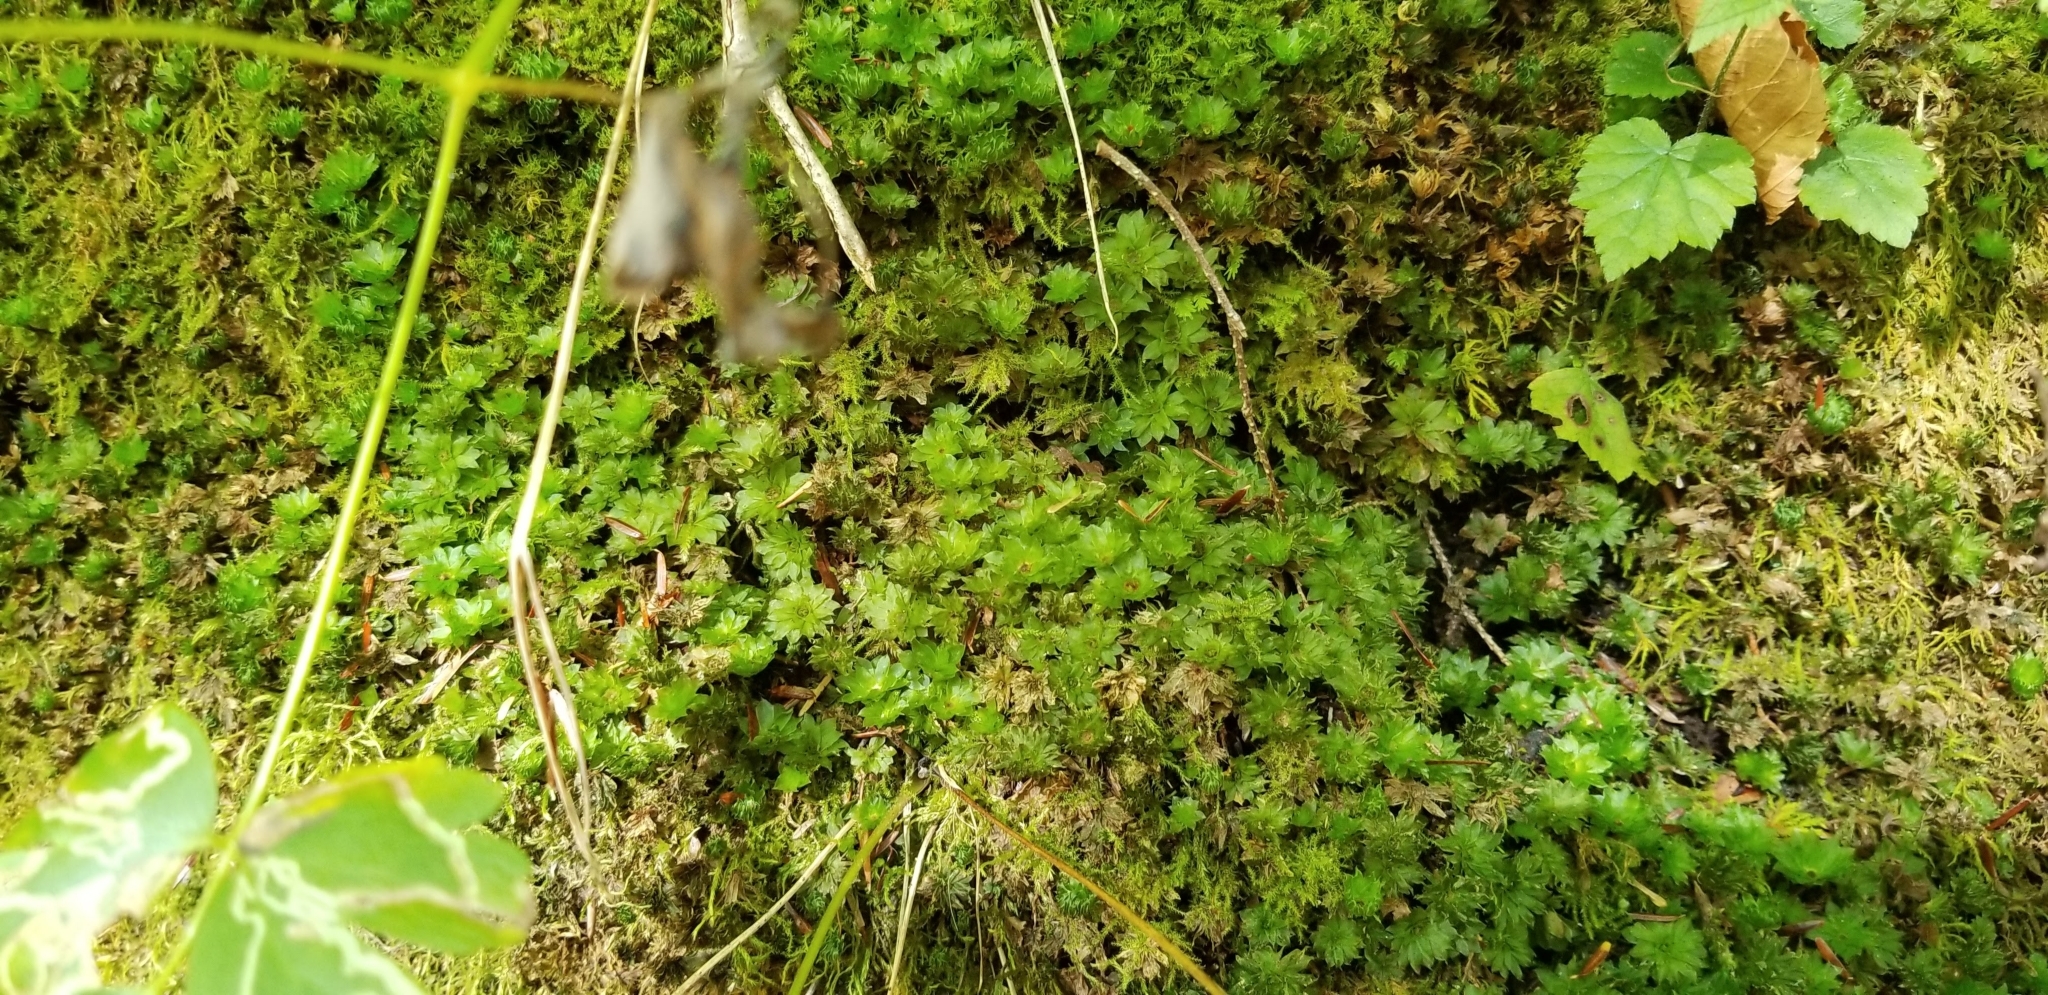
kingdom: Plantae
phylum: Bryophyta
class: Bryopsida
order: Bryales
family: Bryaceae
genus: Rhodobryum
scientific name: Rhodobryum ontariense
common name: Ontario rhodobryum moss
